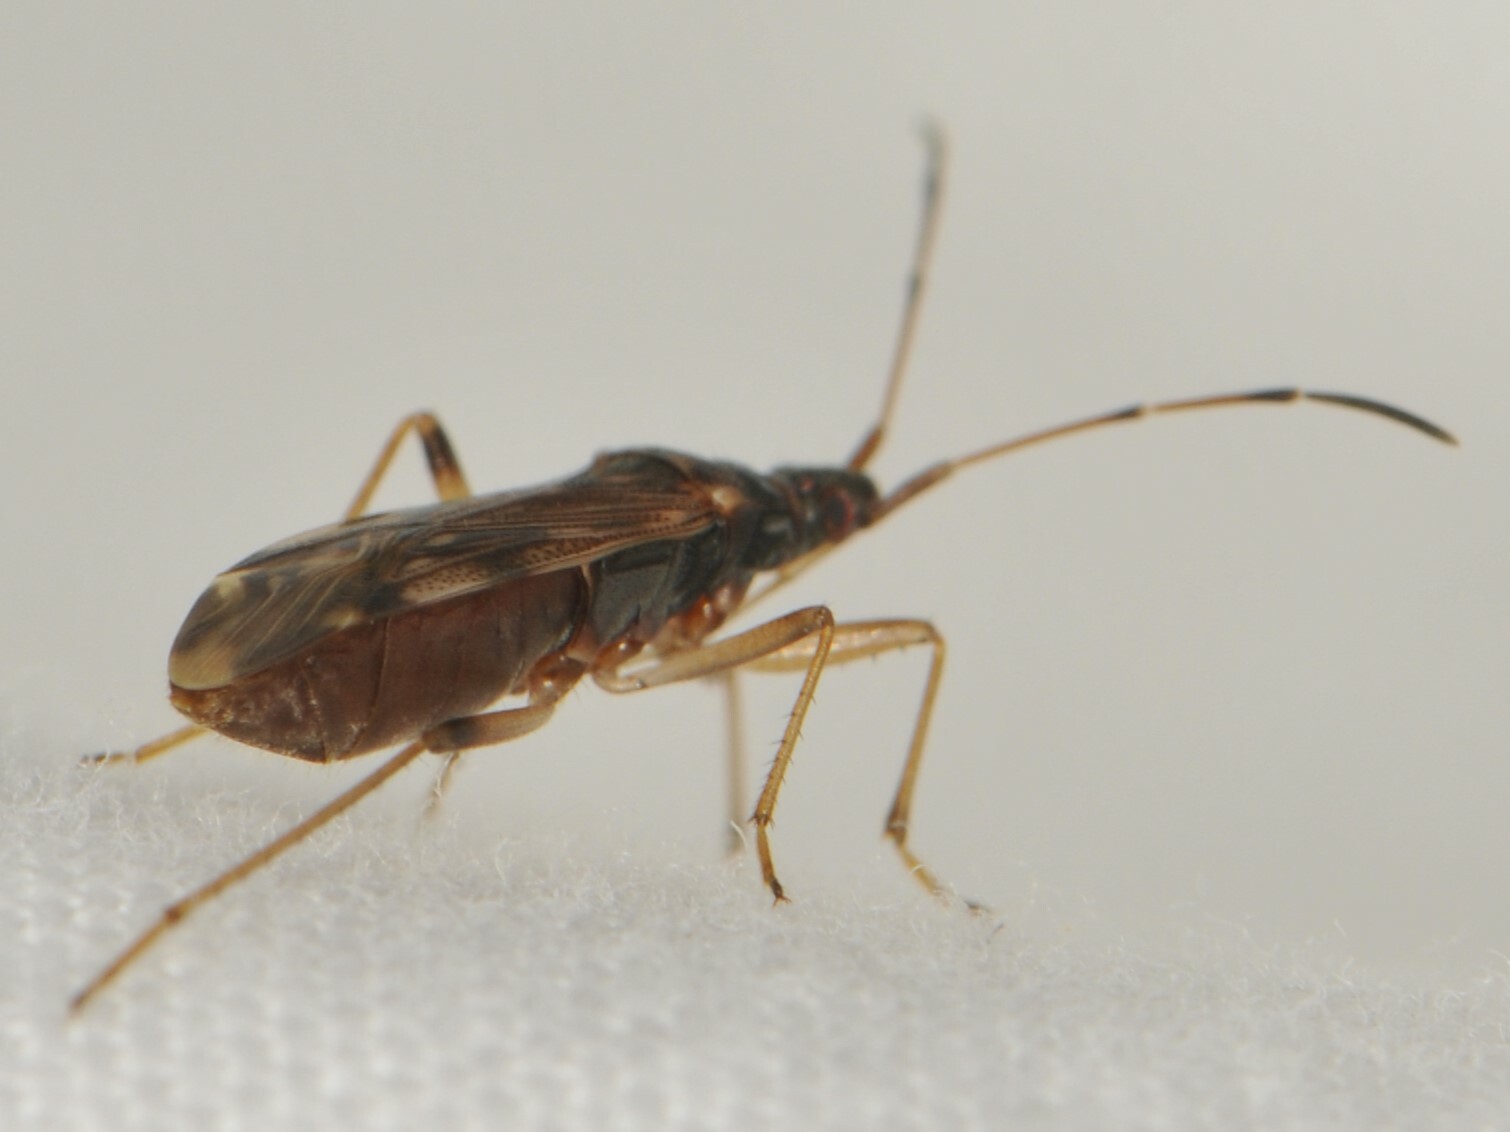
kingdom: Animalia
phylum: Arthropoda
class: Insecta
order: Hemiptera
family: Rhyparochromidae
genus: Ozophora
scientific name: Ozophora salsaverdeae
